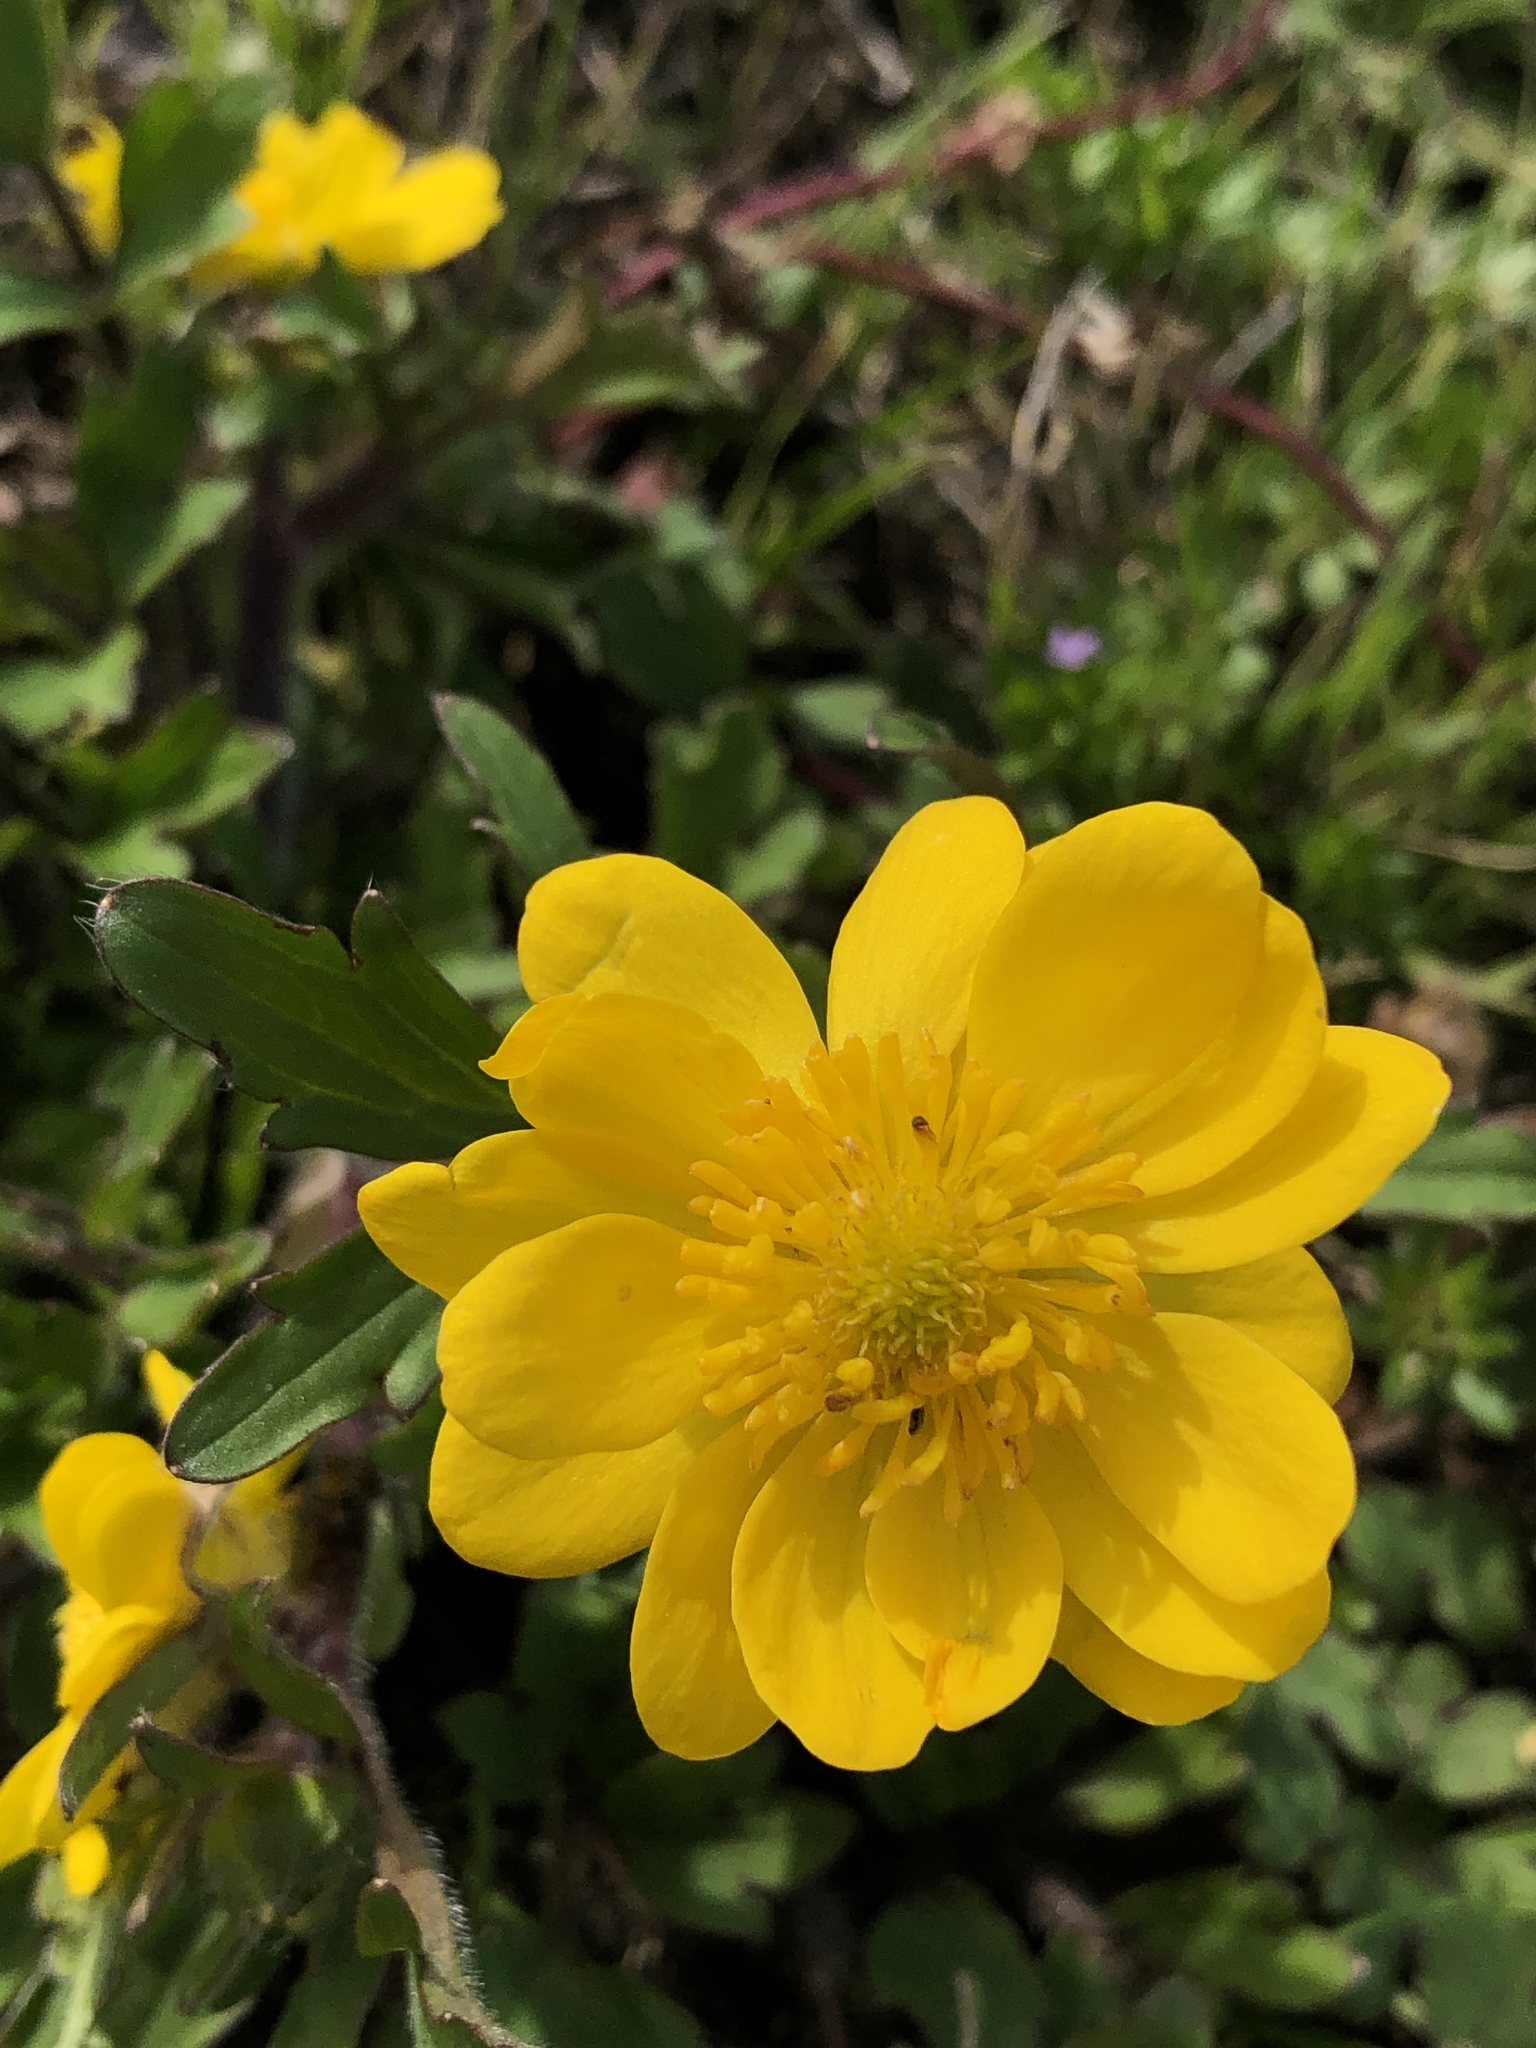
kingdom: Plantae
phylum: Tracheophyta
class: Magnoliopsida
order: Ranunculales
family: Ranunculaceae
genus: Ranunculus
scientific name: Ranunculus macranthus
